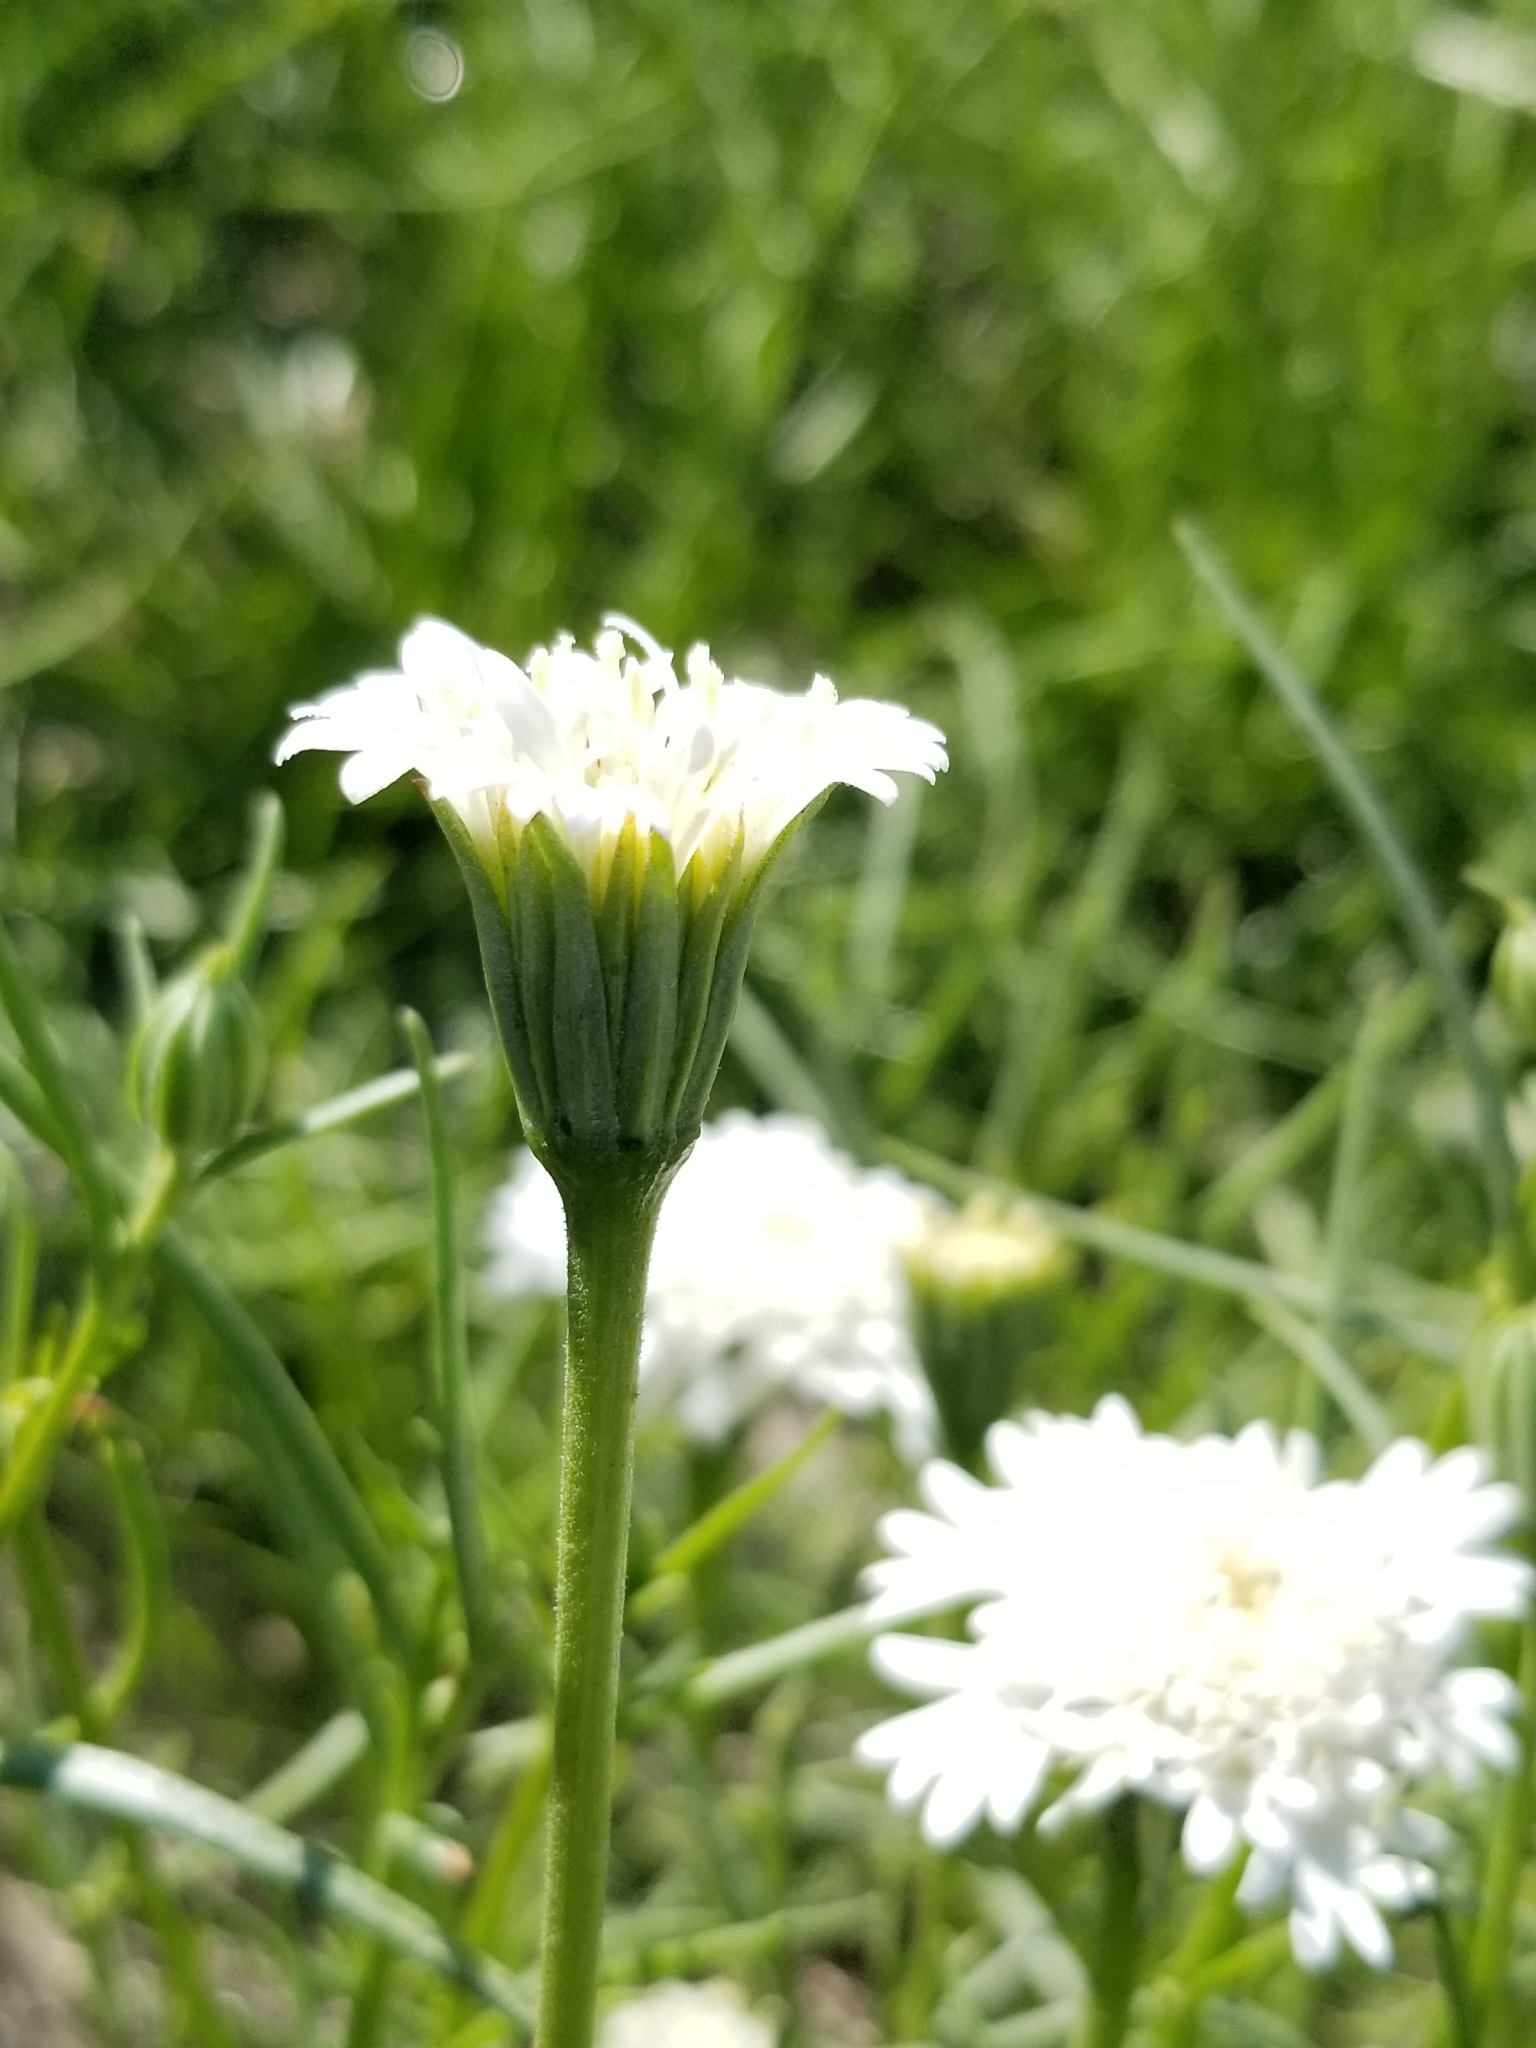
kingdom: Plantae
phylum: Tracheophyta
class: Magnoliopsida
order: Asterales
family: Asteraceae
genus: Chaenactis
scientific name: Chaenactis fremontii
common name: Fremont pincushion
